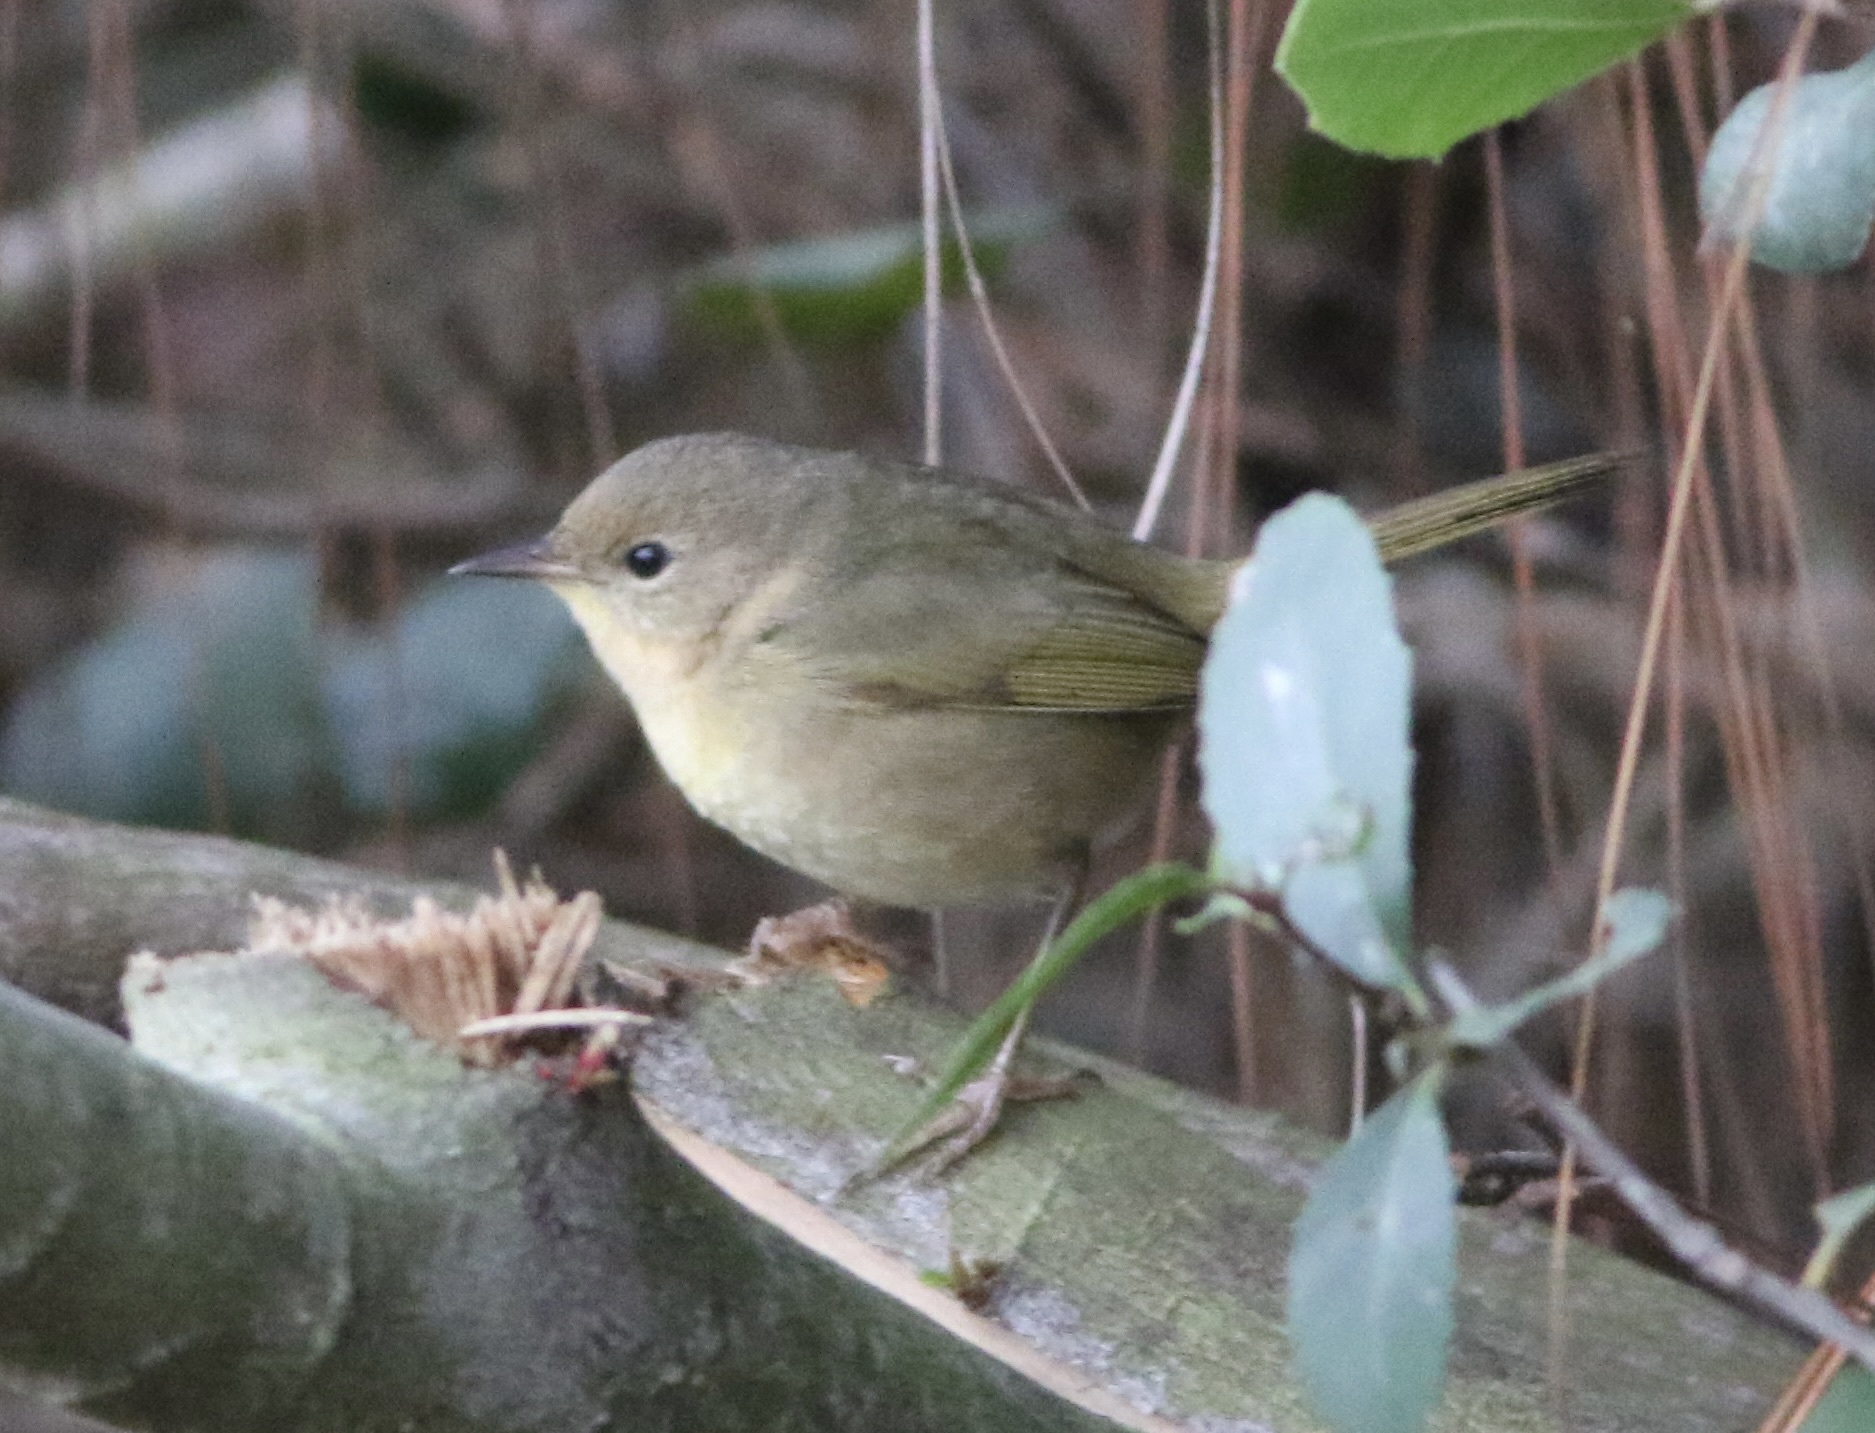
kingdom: Animalia
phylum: Chordata
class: Aves
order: Passeriformes
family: Parulidae
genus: Geothlypis
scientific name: Geothlypis trichas
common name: Common yellowthroat
